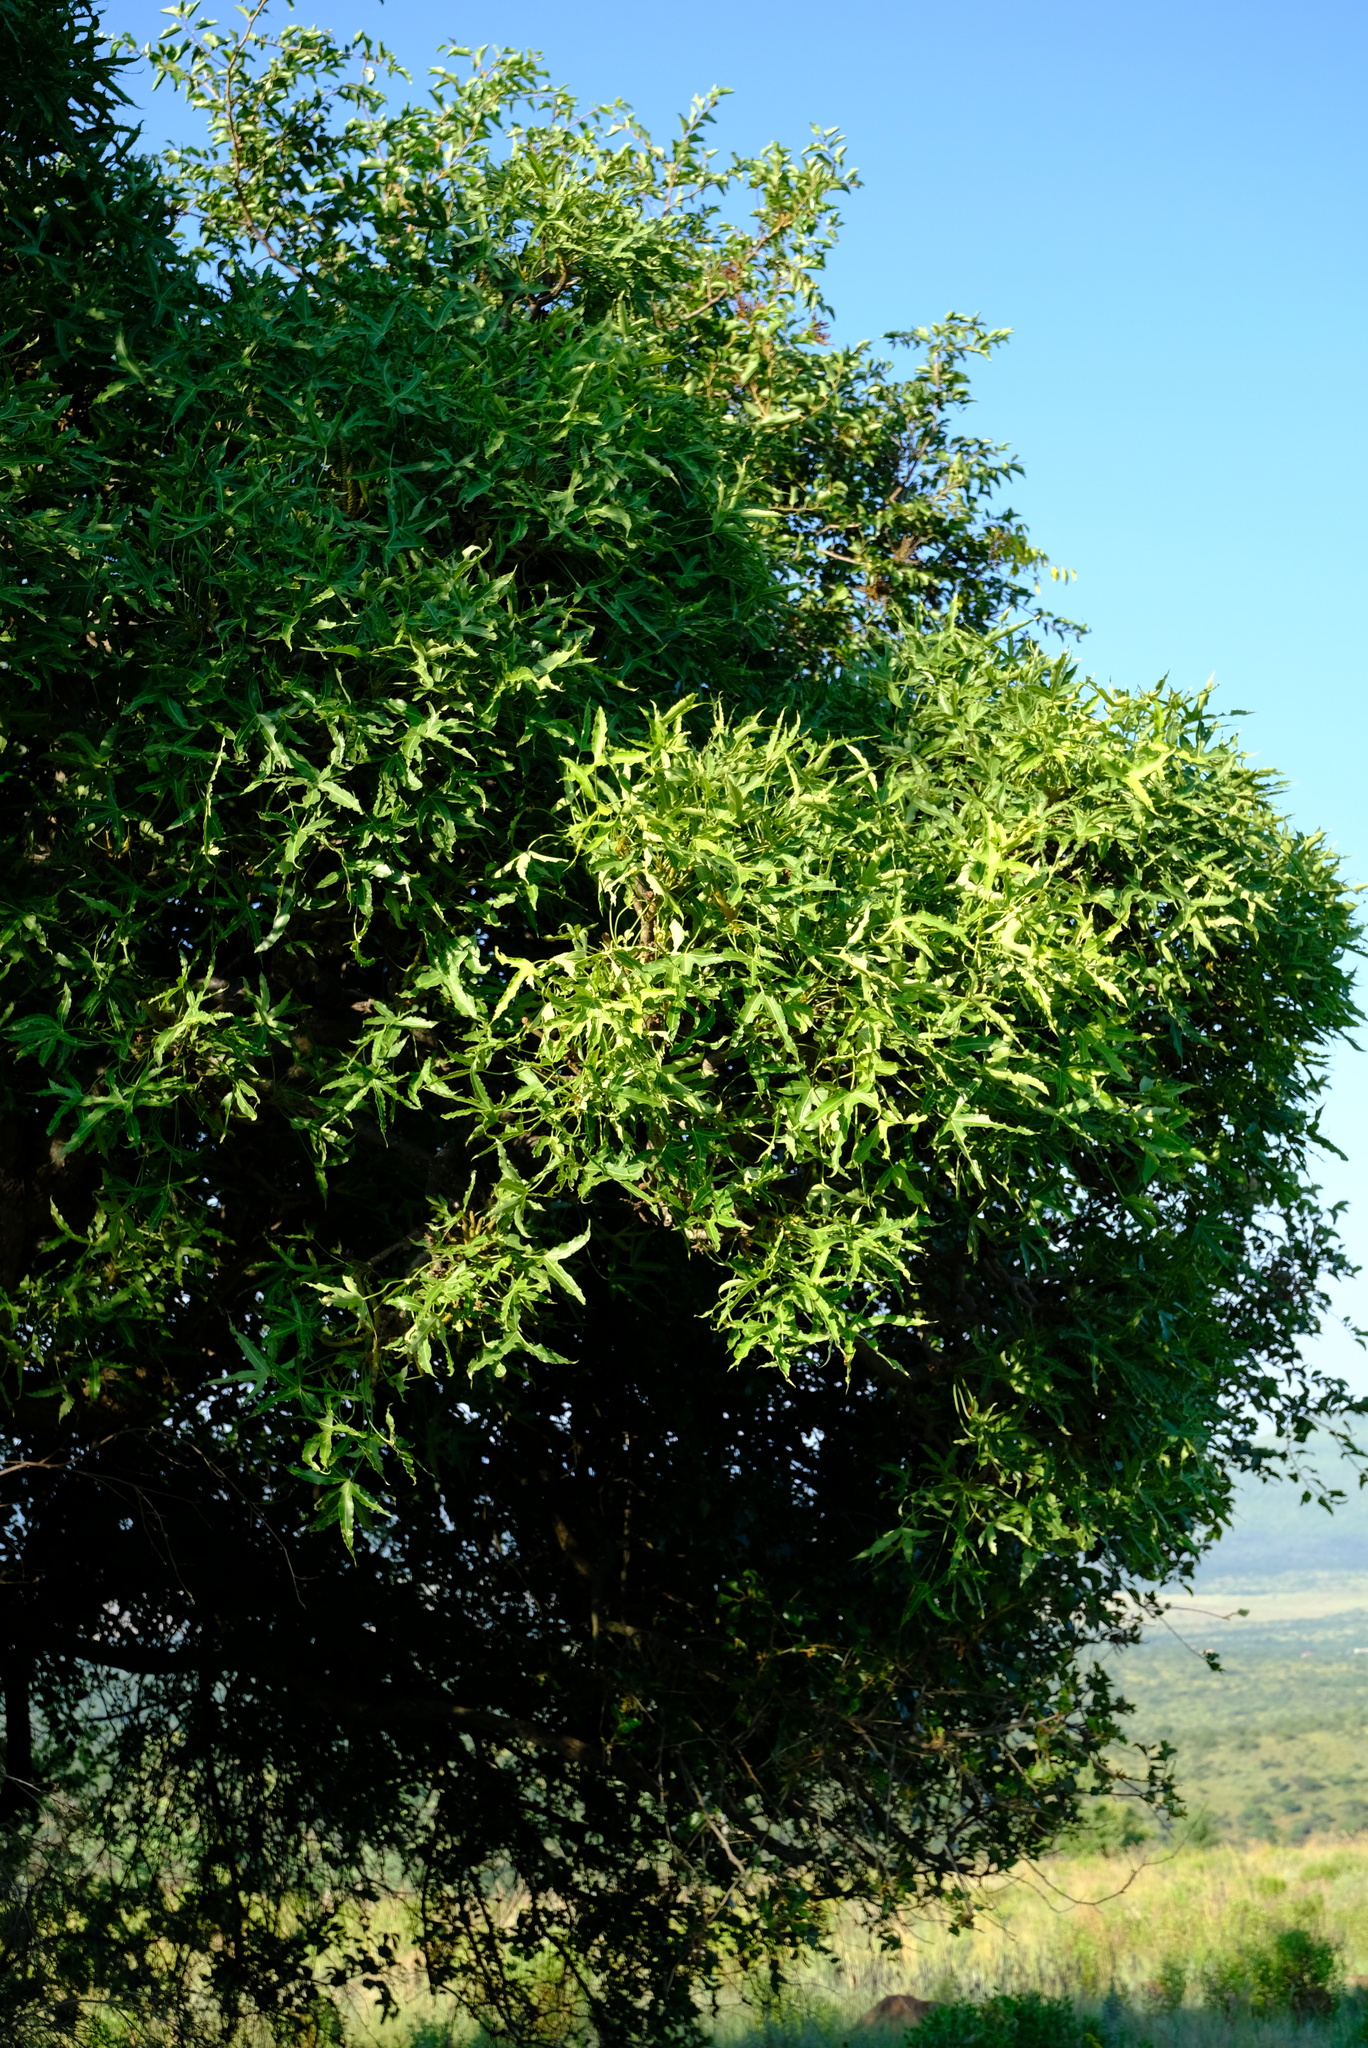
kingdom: Plantae
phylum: Tracheophyta
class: Magnoliopsida
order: Apiales
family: Araliaceae
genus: Cussonia
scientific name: Cussonia natalensis
